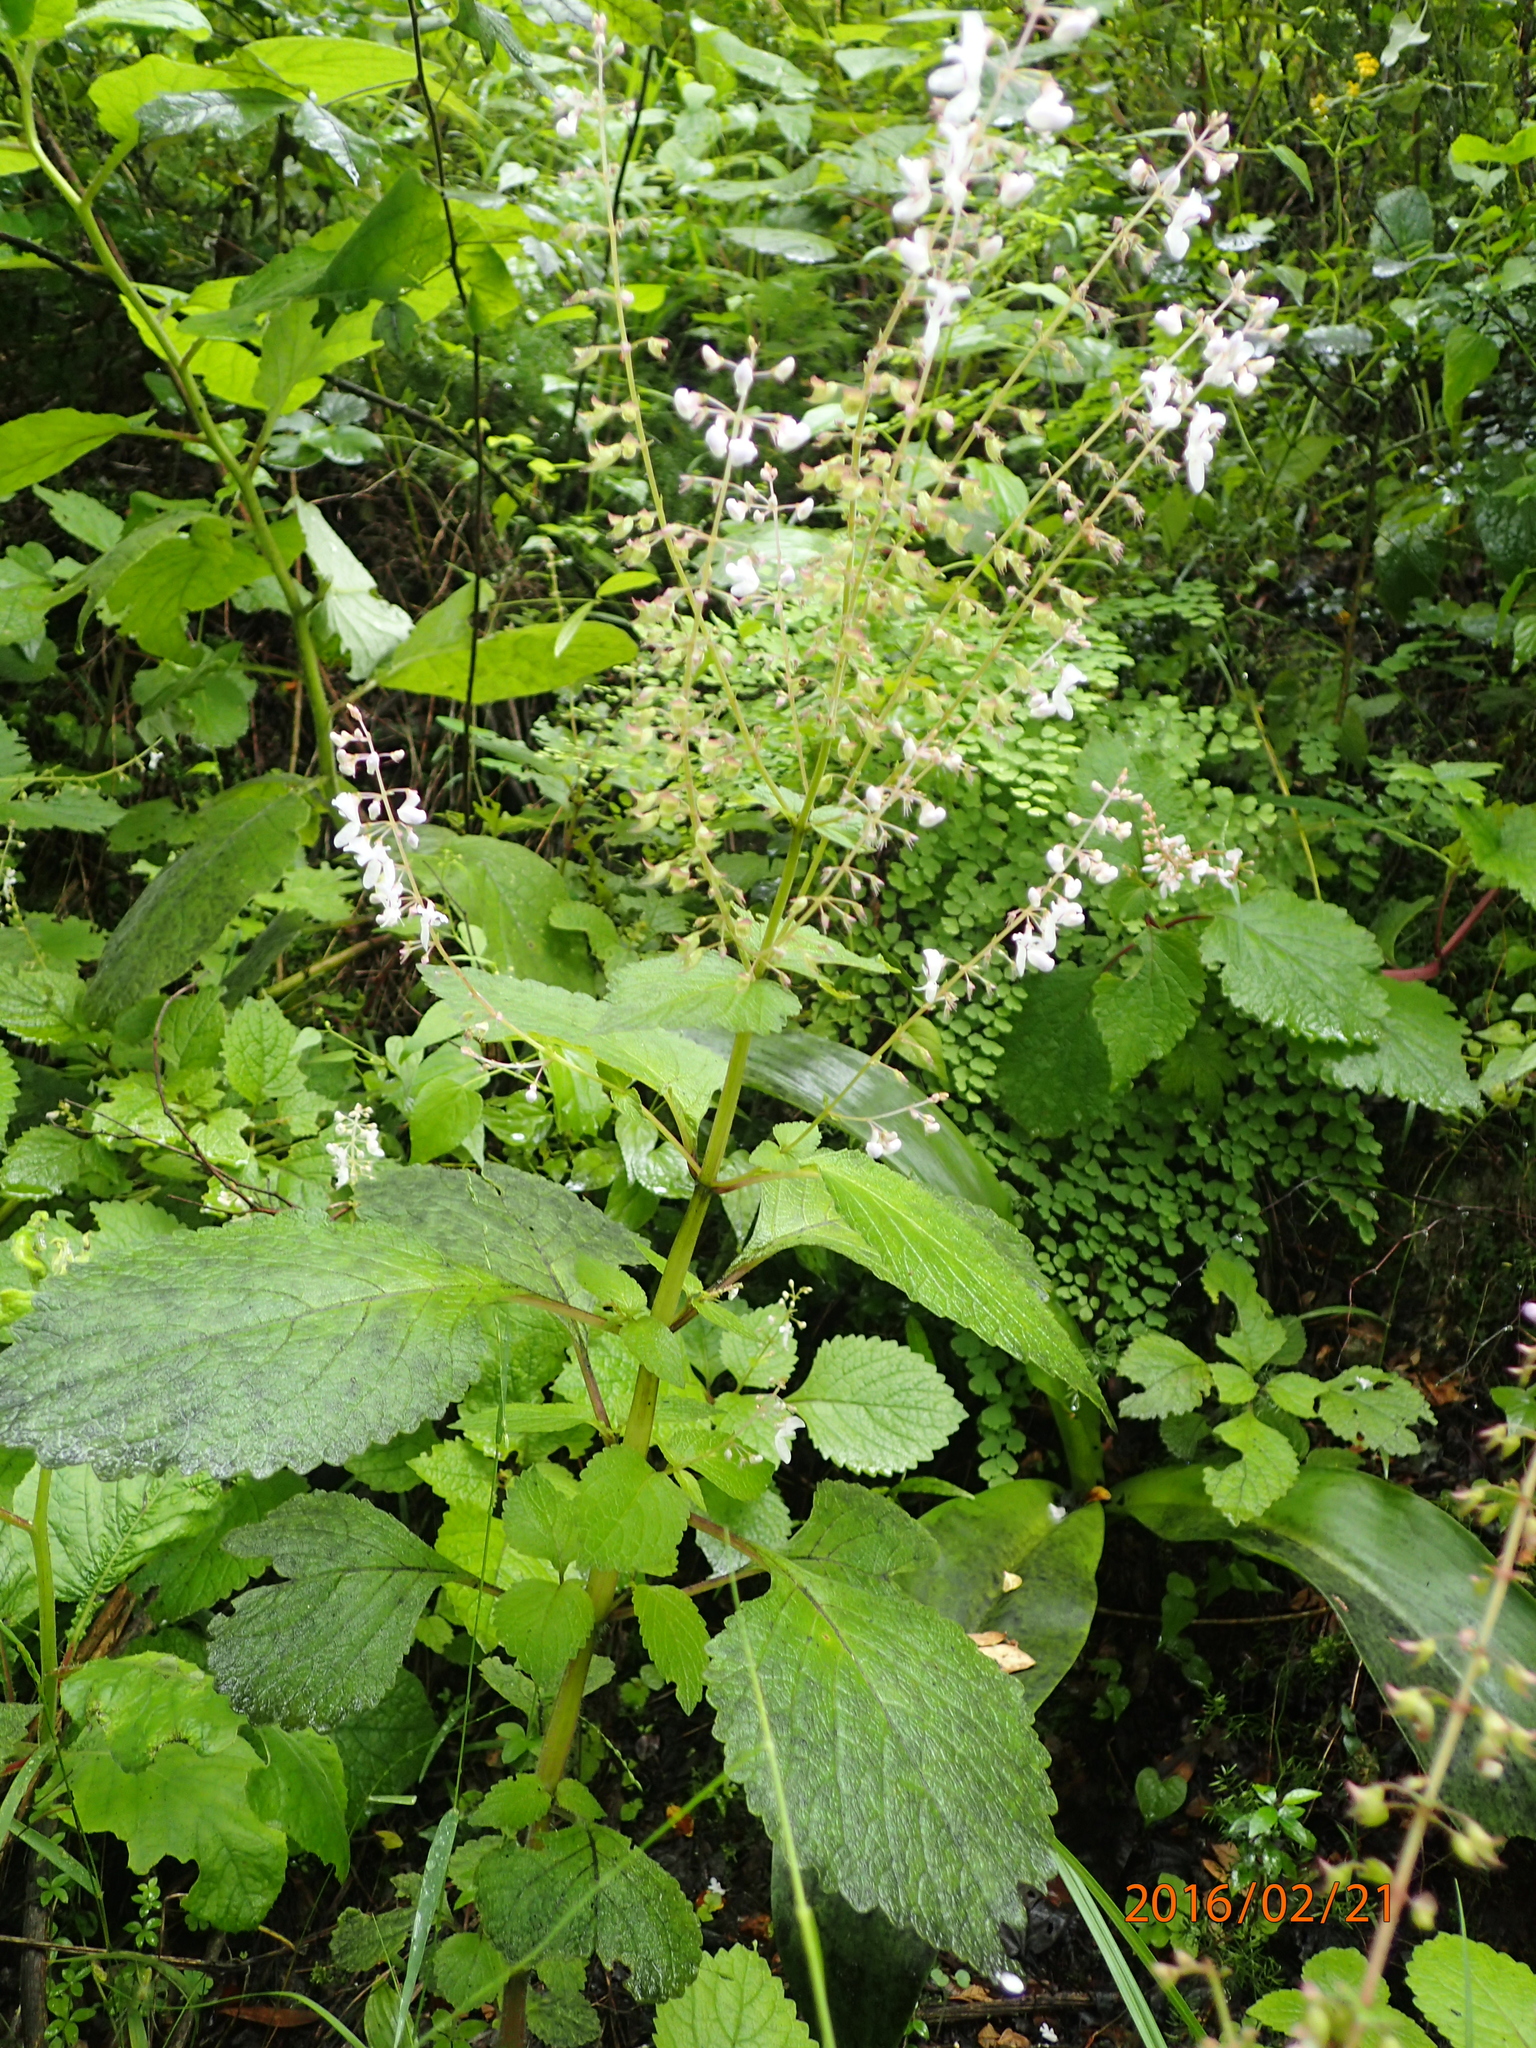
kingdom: Plantae
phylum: Tracheophyta
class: Magnoliopsida
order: Lamiales
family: Lamiaceae
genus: Plectranthus
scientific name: Plectranthus grallatus
